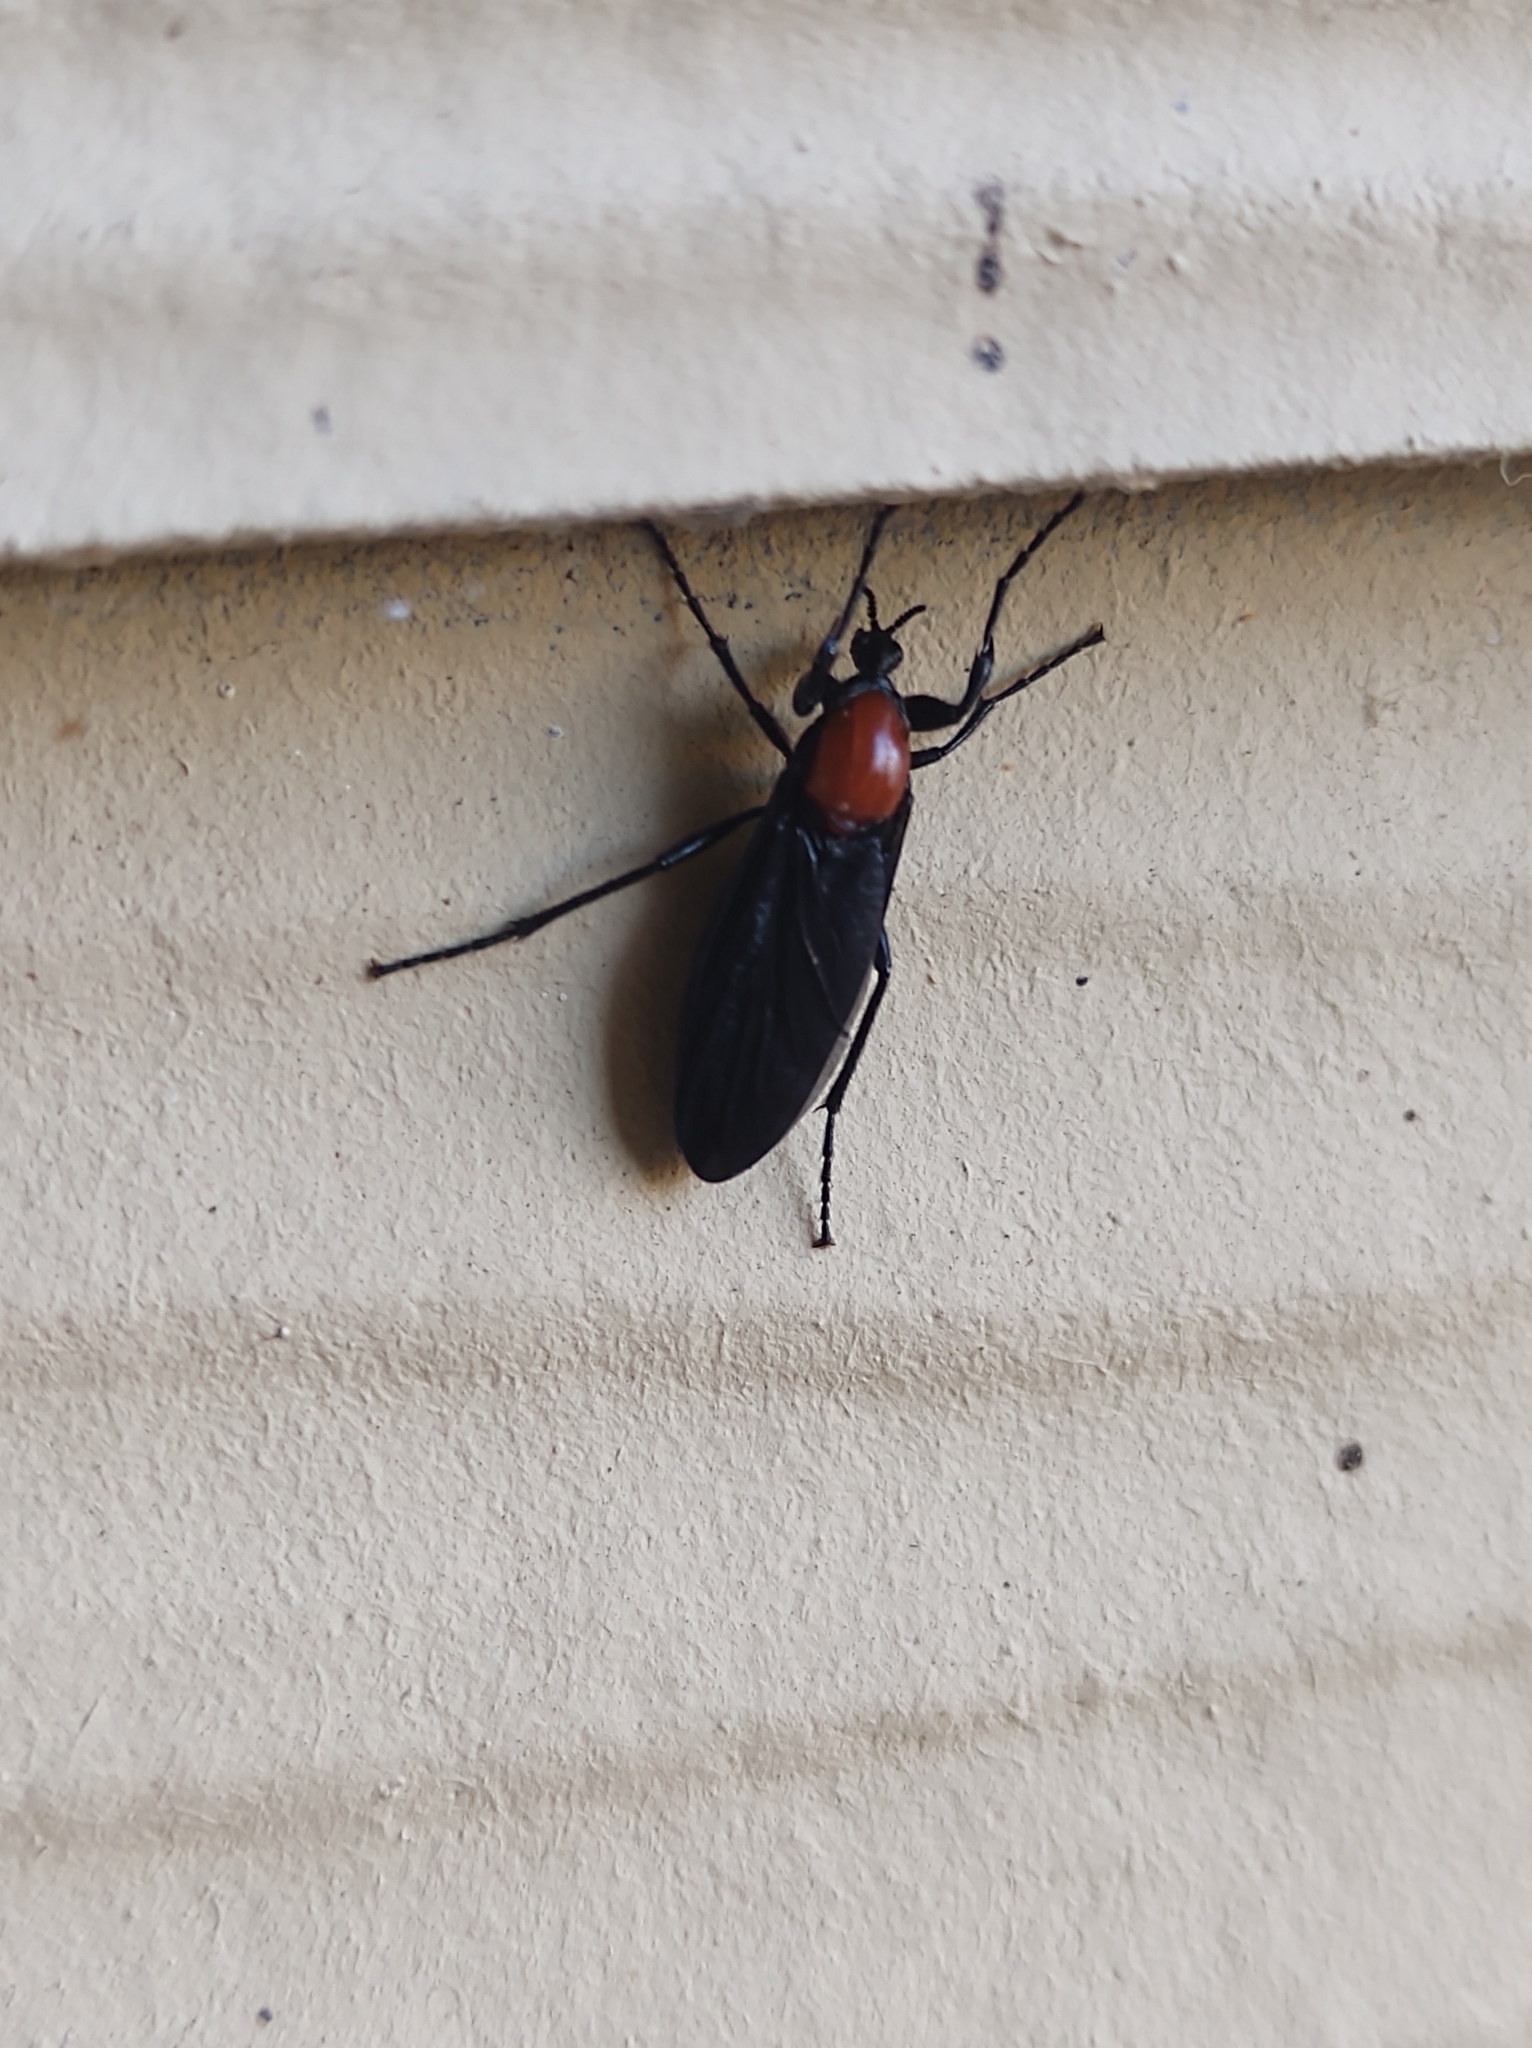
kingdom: Animalia
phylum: Arthropoda
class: Insecta
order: Diptera
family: Bibionidae
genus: Bibio
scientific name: Bibio superfluus
